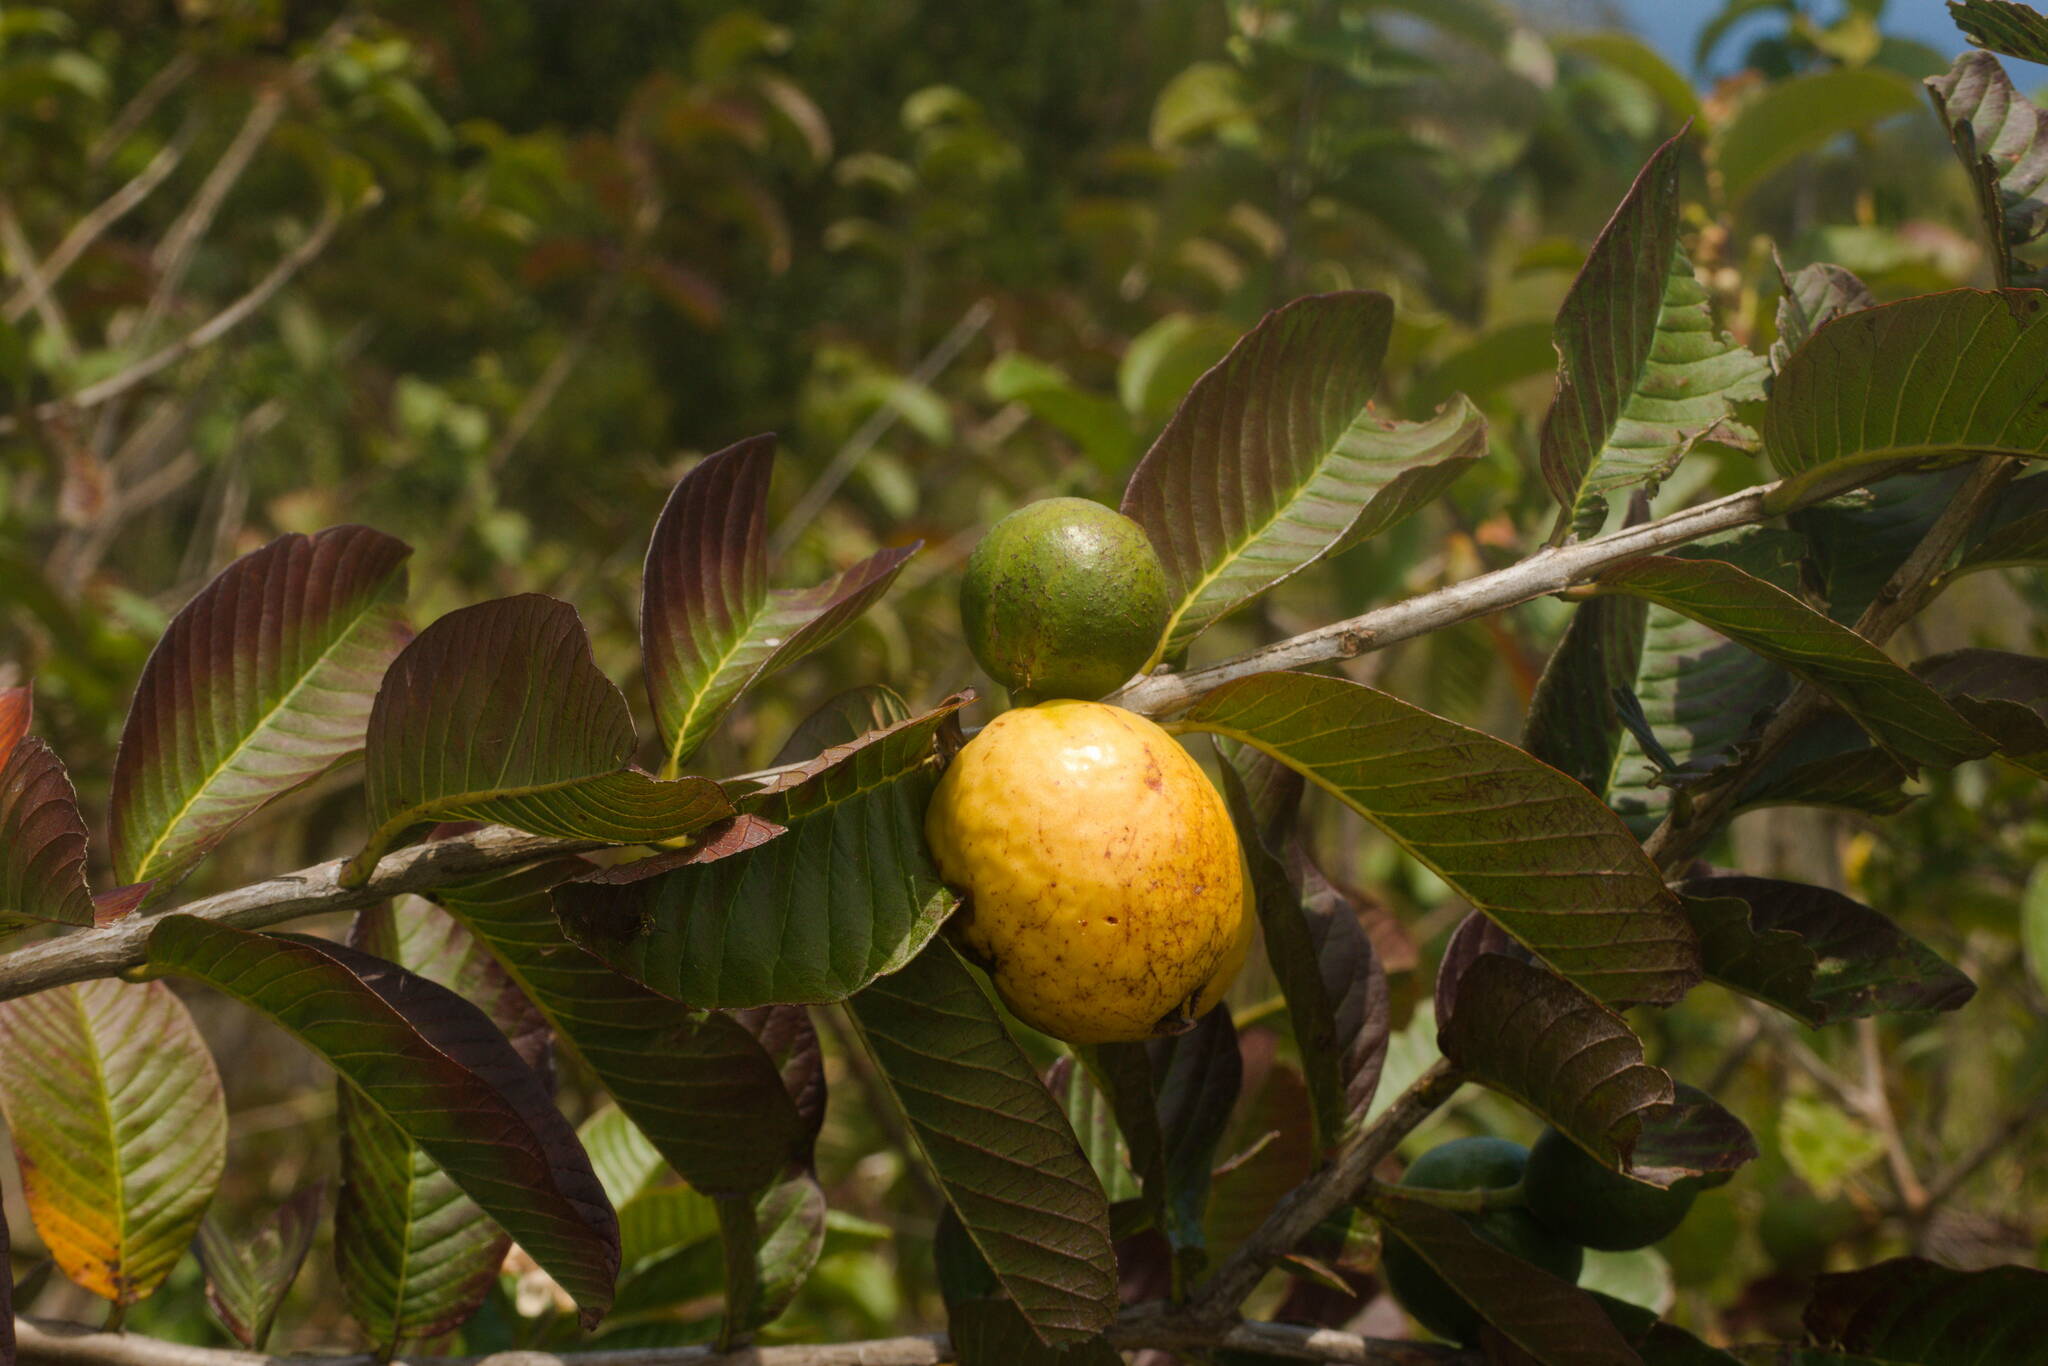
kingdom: Plantae
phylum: Tracheophyta
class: Magnoliopsida
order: Myrtales
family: Myrtaceae
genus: Psidium
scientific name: Psidium guajava
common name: Guava
